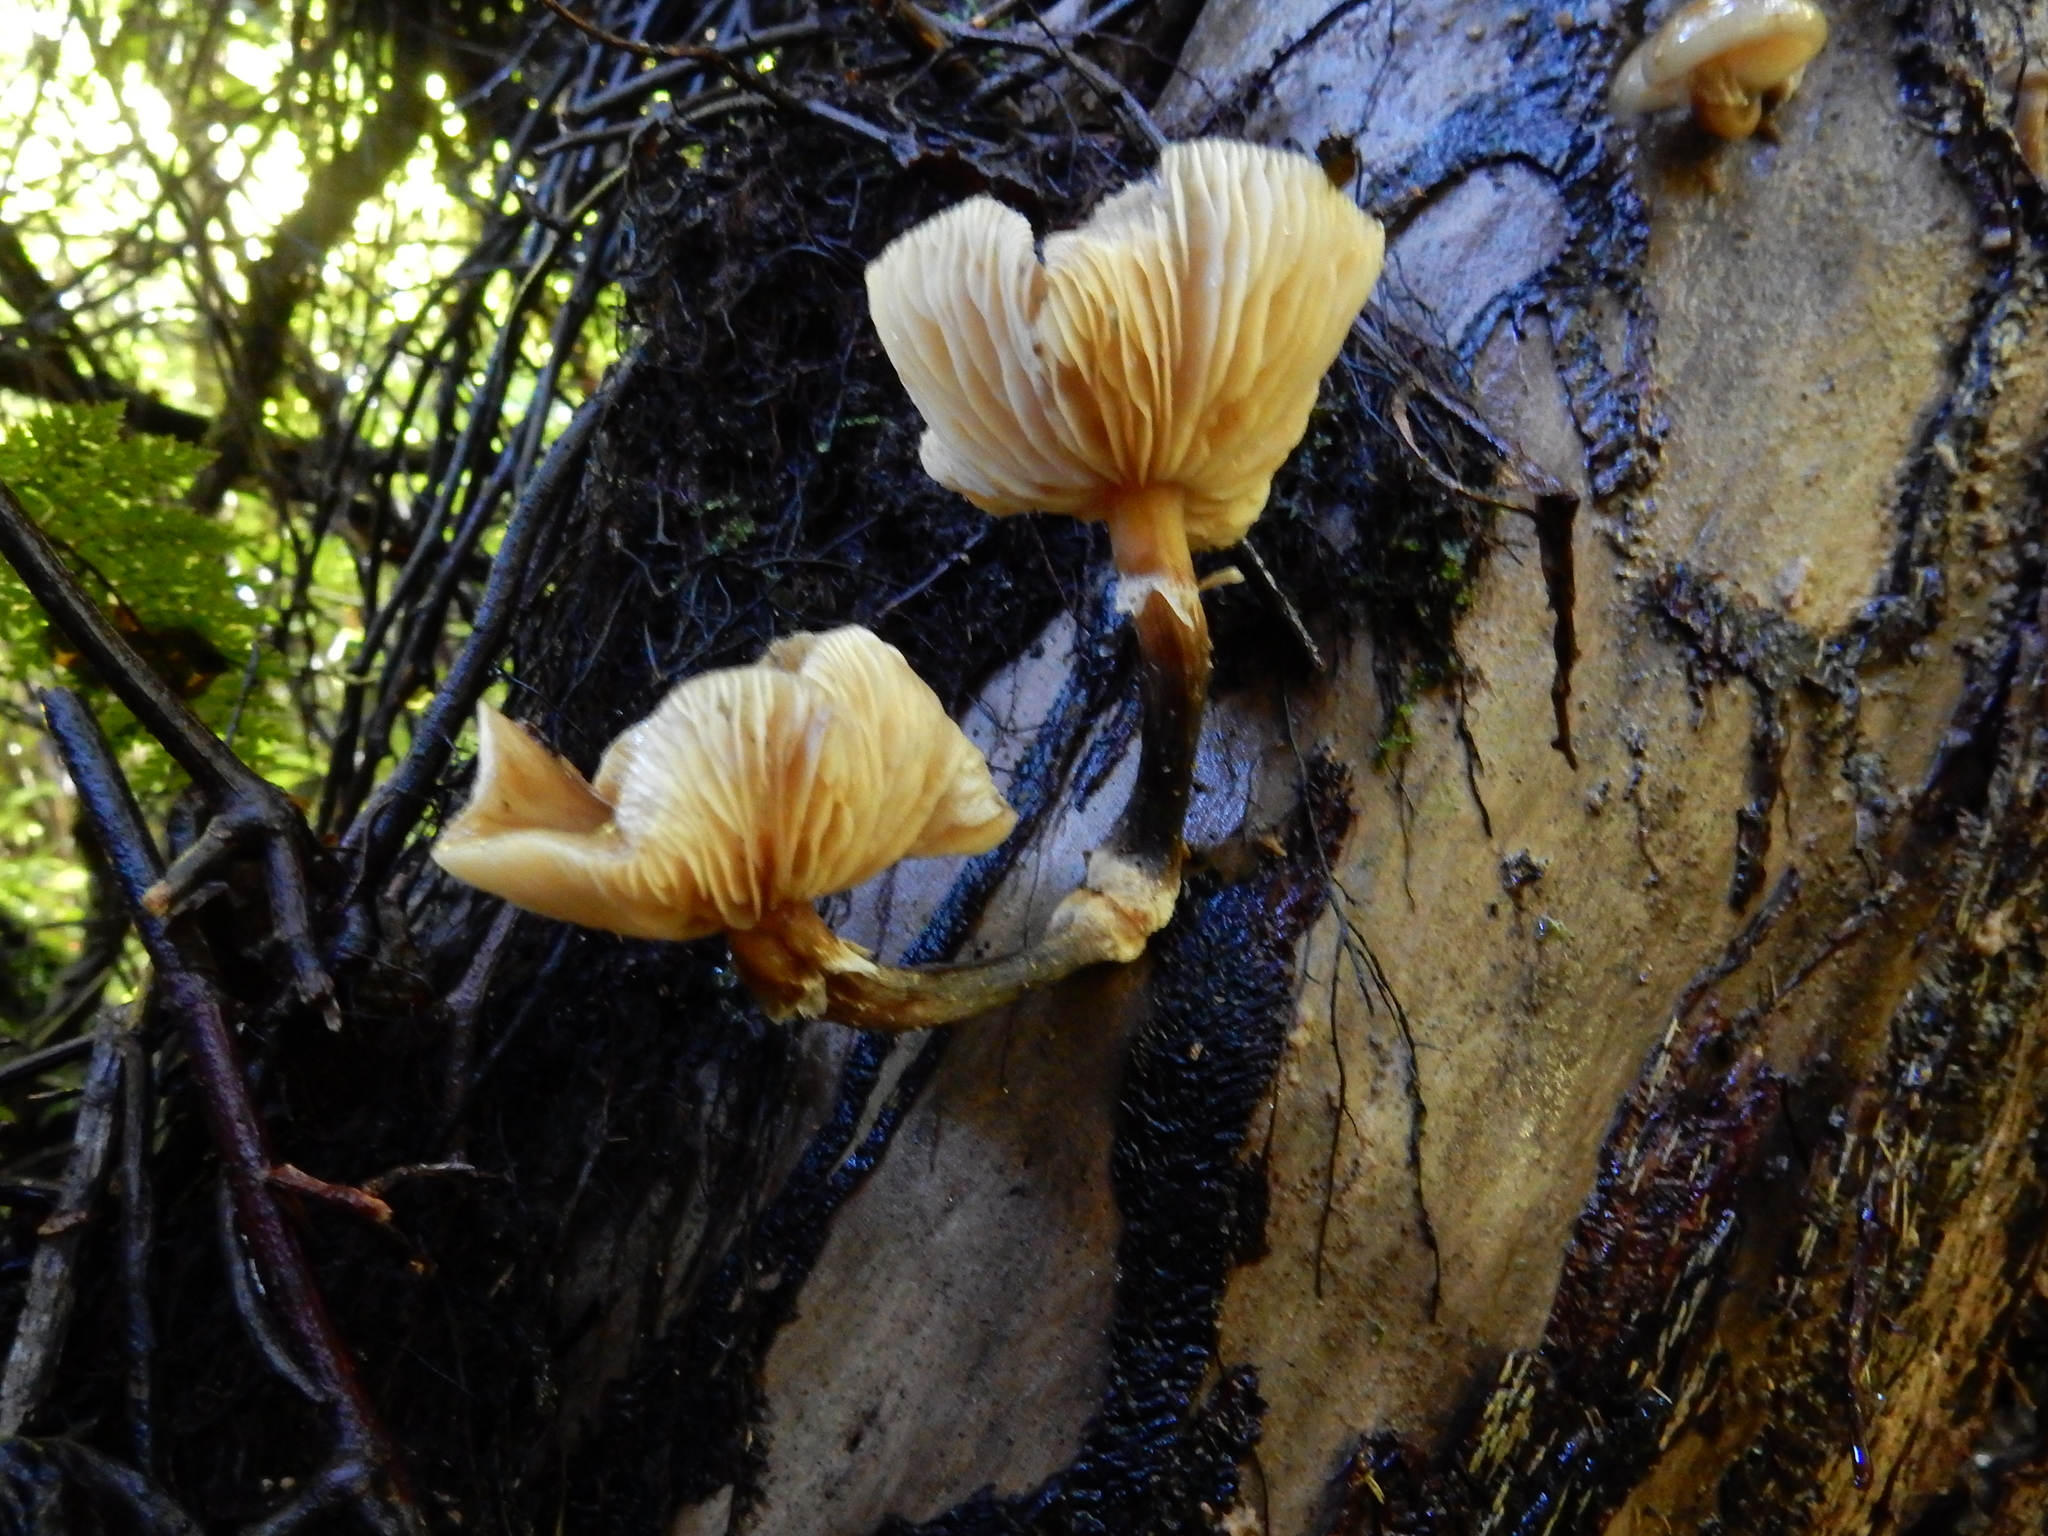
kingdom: Fungi
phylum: Basidiomycota
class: Agaricomycetes
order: Agaricales
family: Physalacriaceae
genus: Armillaria
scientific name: Armillaria novae-zelandiae
